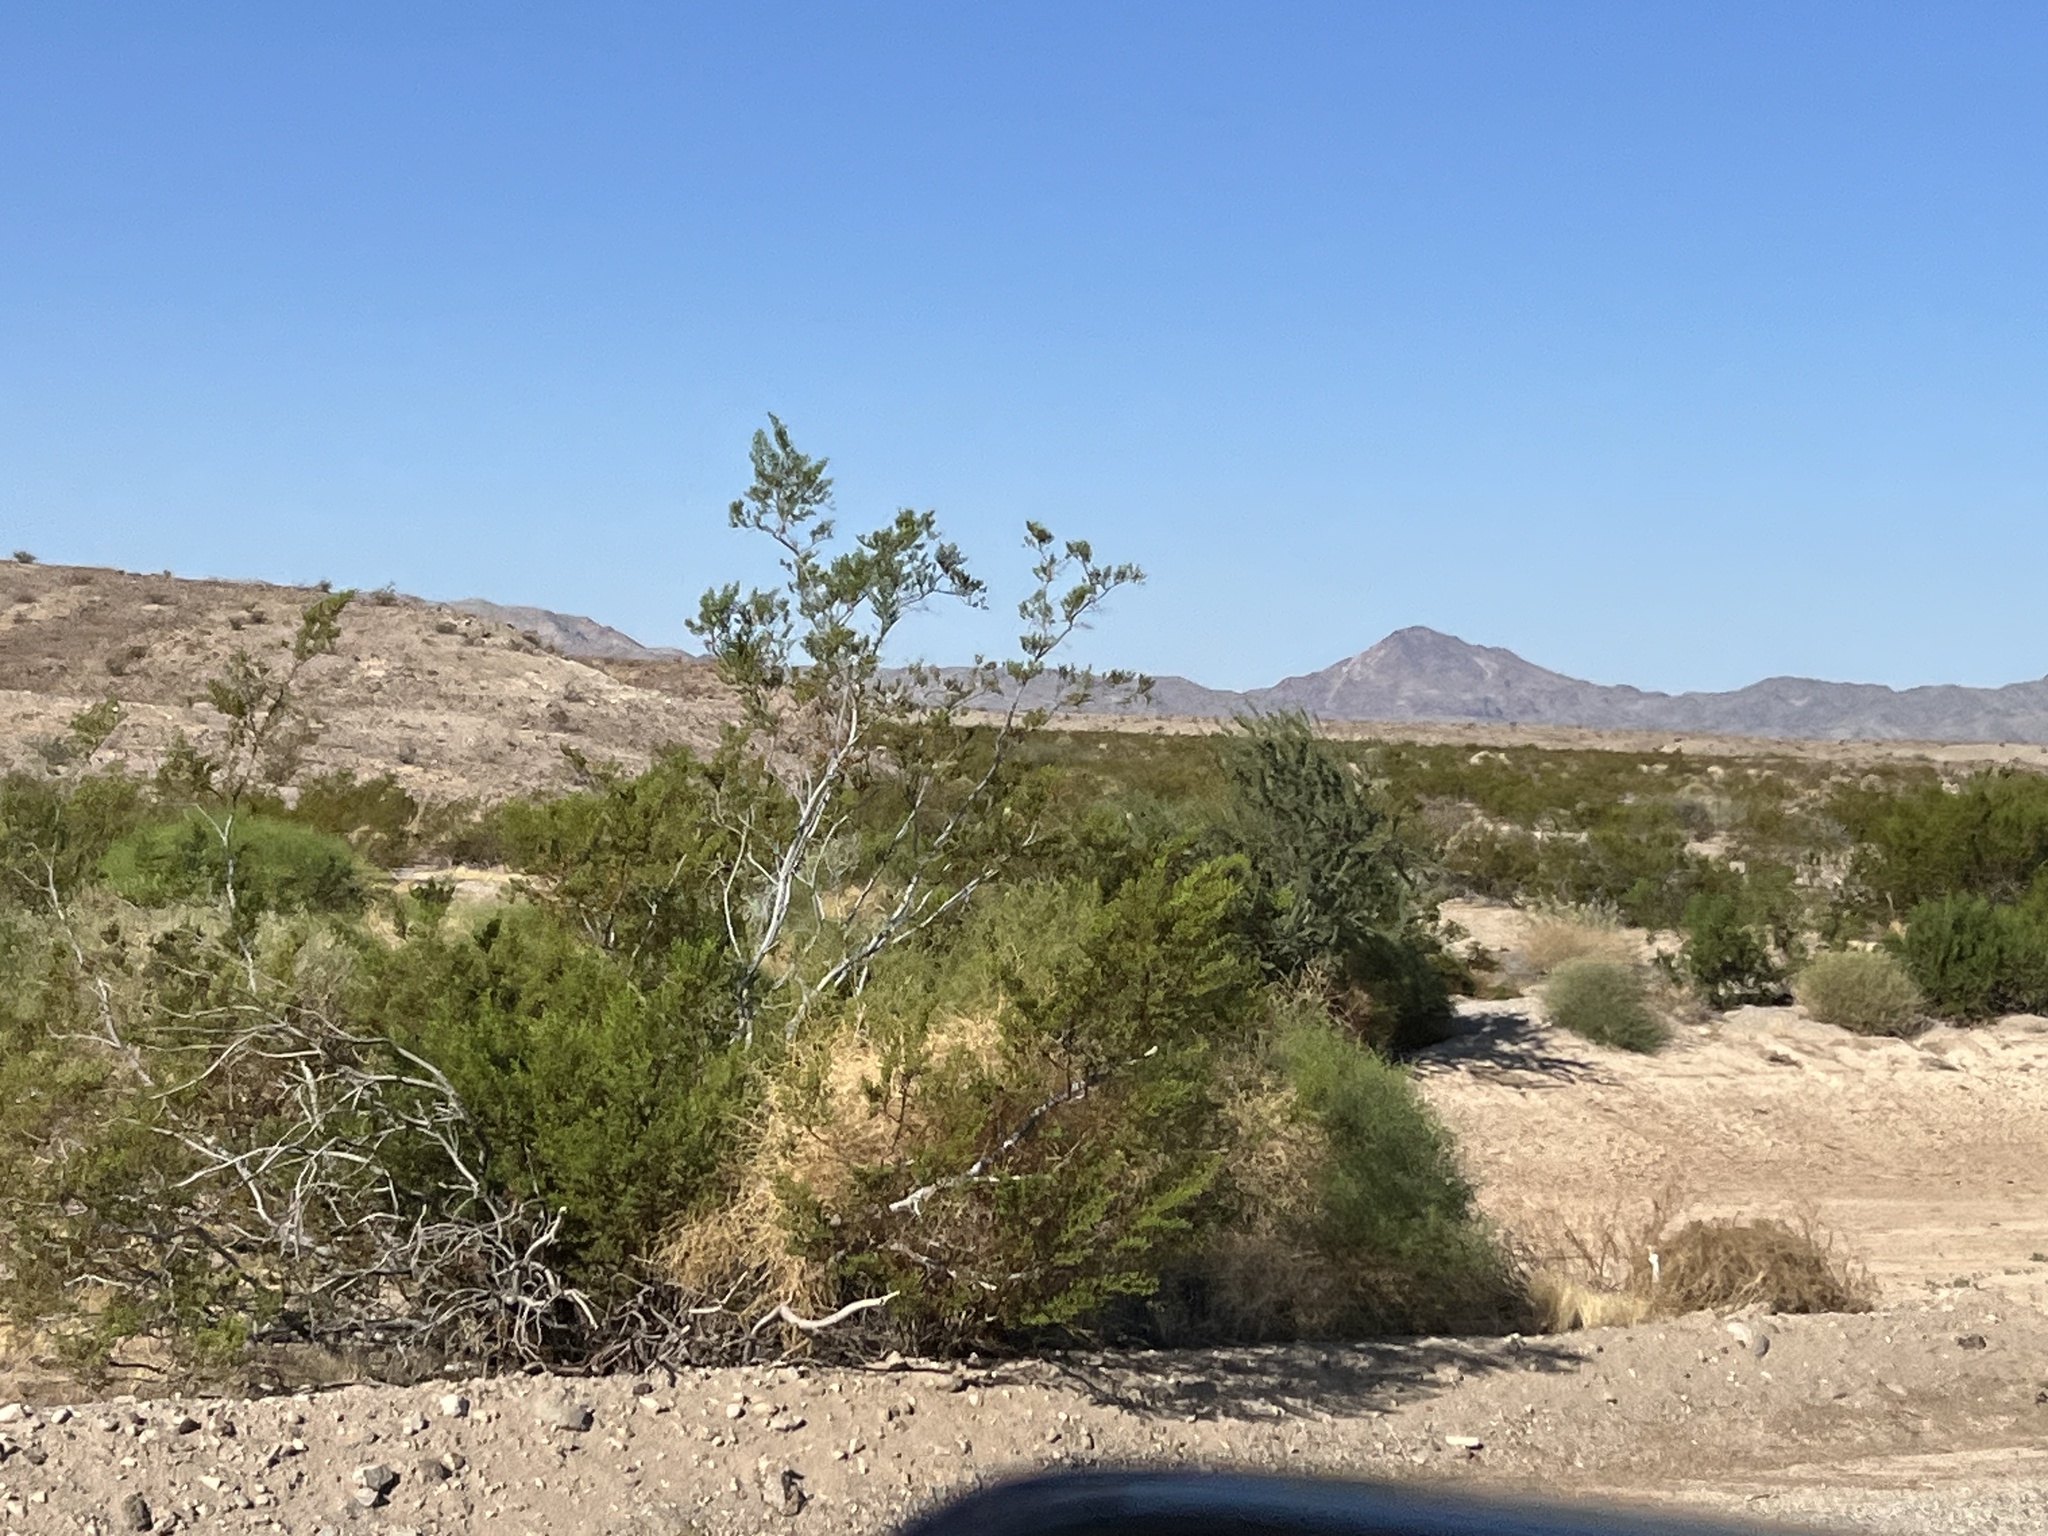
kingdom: Plantae
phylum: Tracheophyta
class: Magnoliopsida
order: Zygophyllales
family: Zygophyllaceae
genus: Larrea
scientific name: Larrea tridentata
